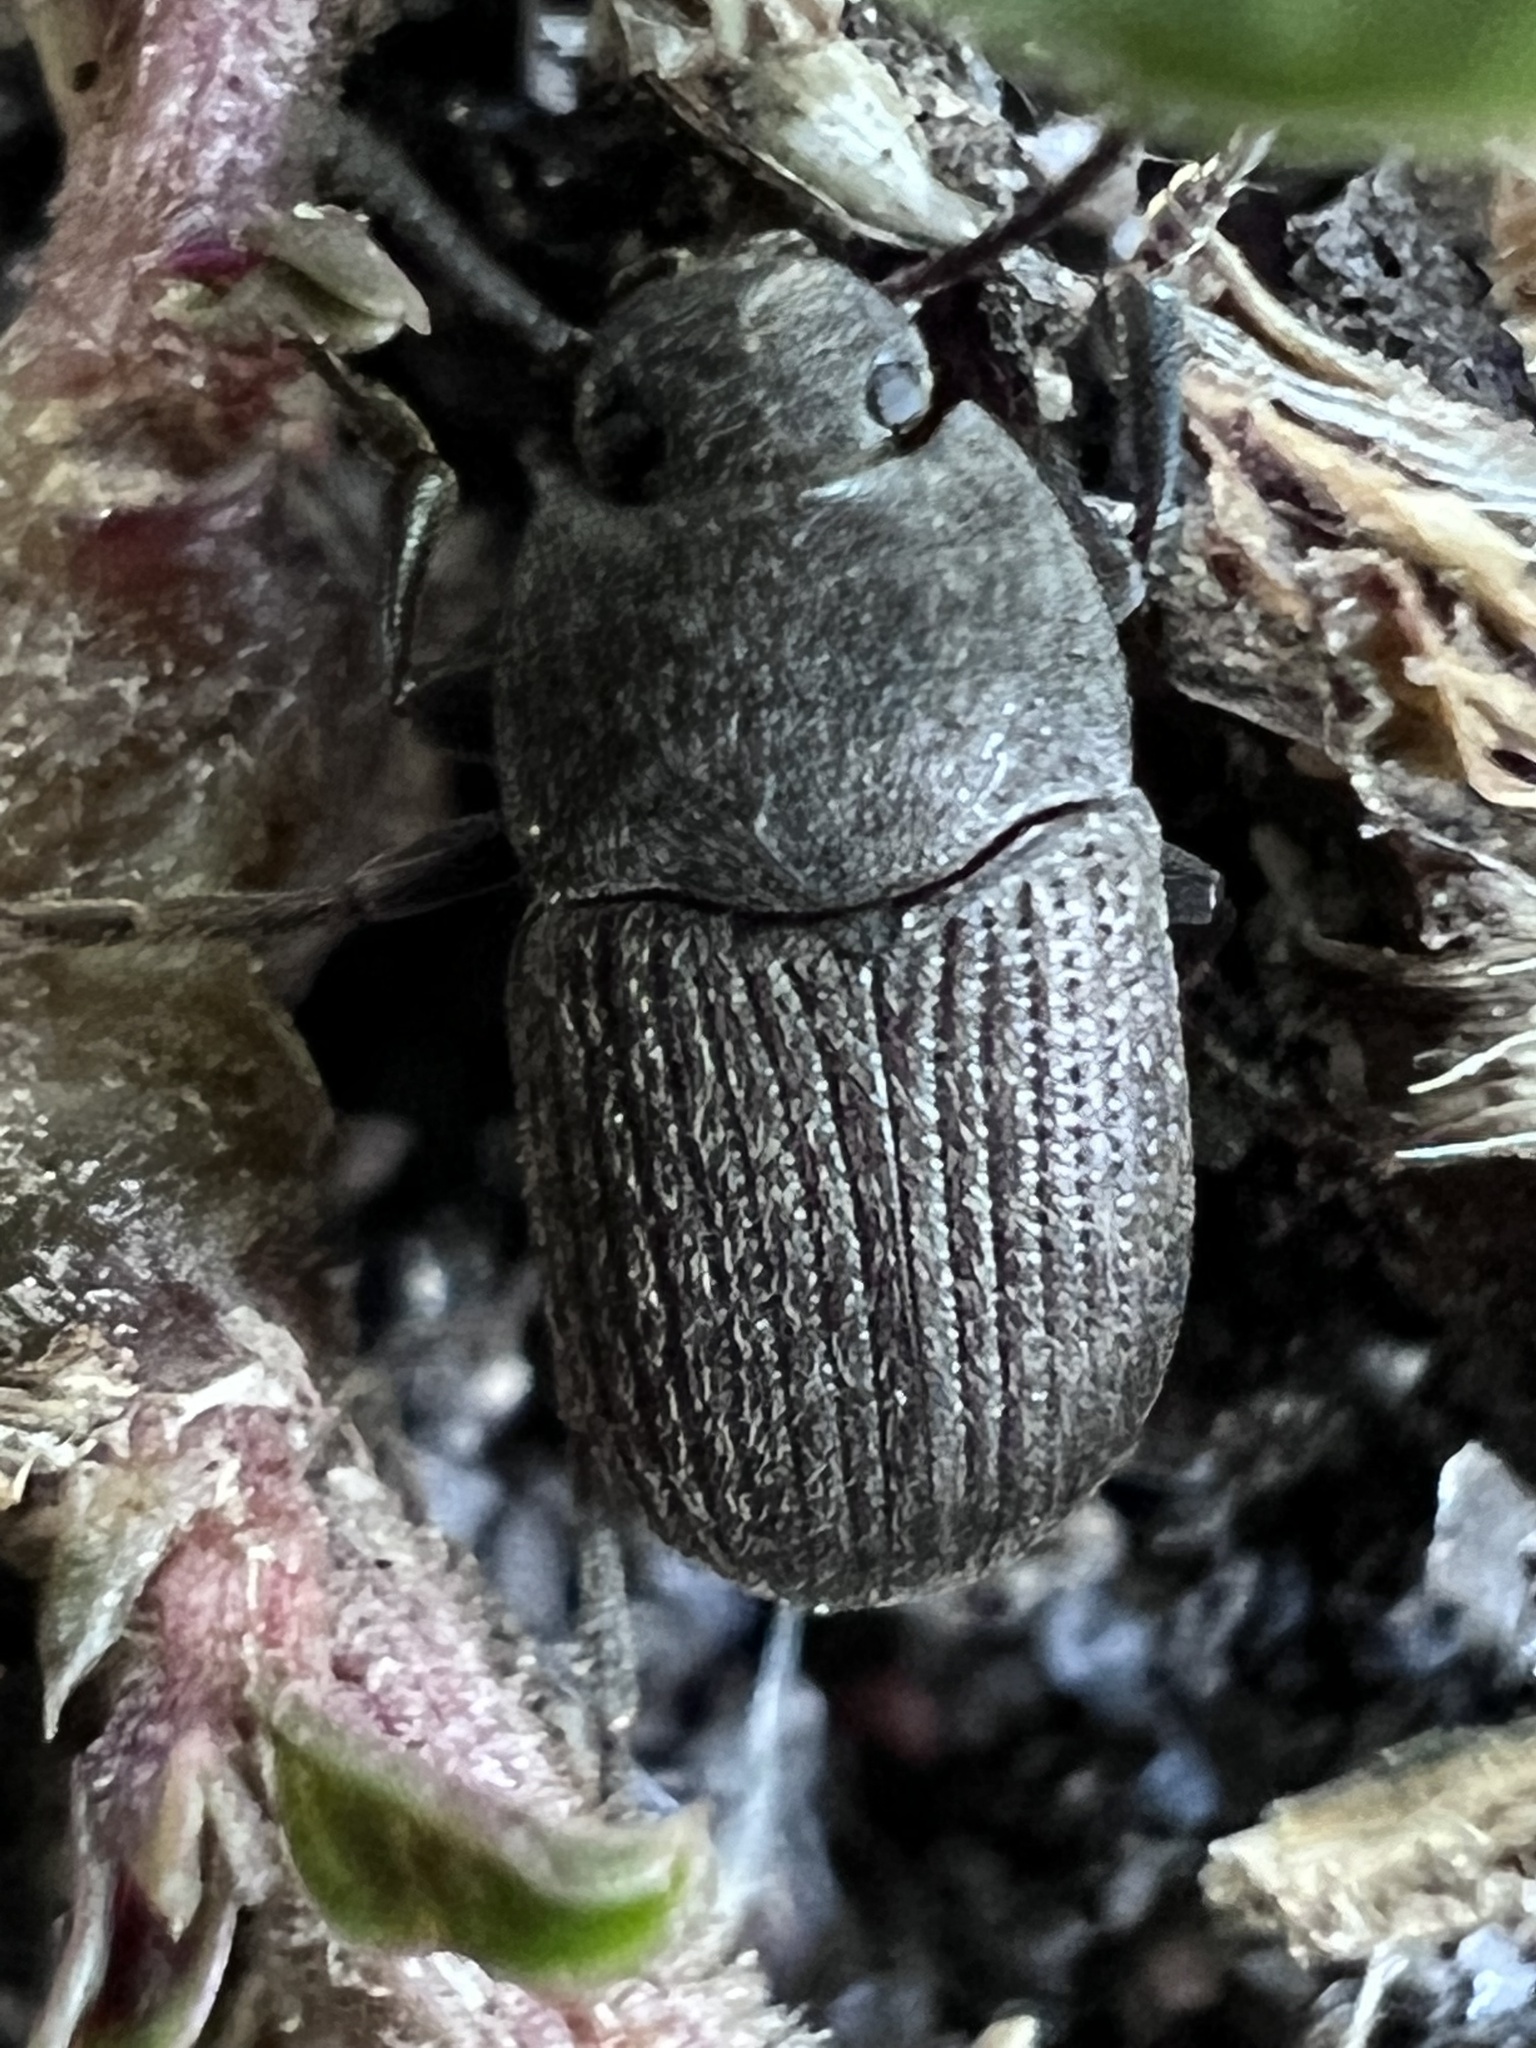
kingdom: Animalia
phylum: Arthropoda
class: Insecta
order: Coleoptera
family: Tenebrionidae
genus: Blapstinus
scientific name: Blapstinus fortis
